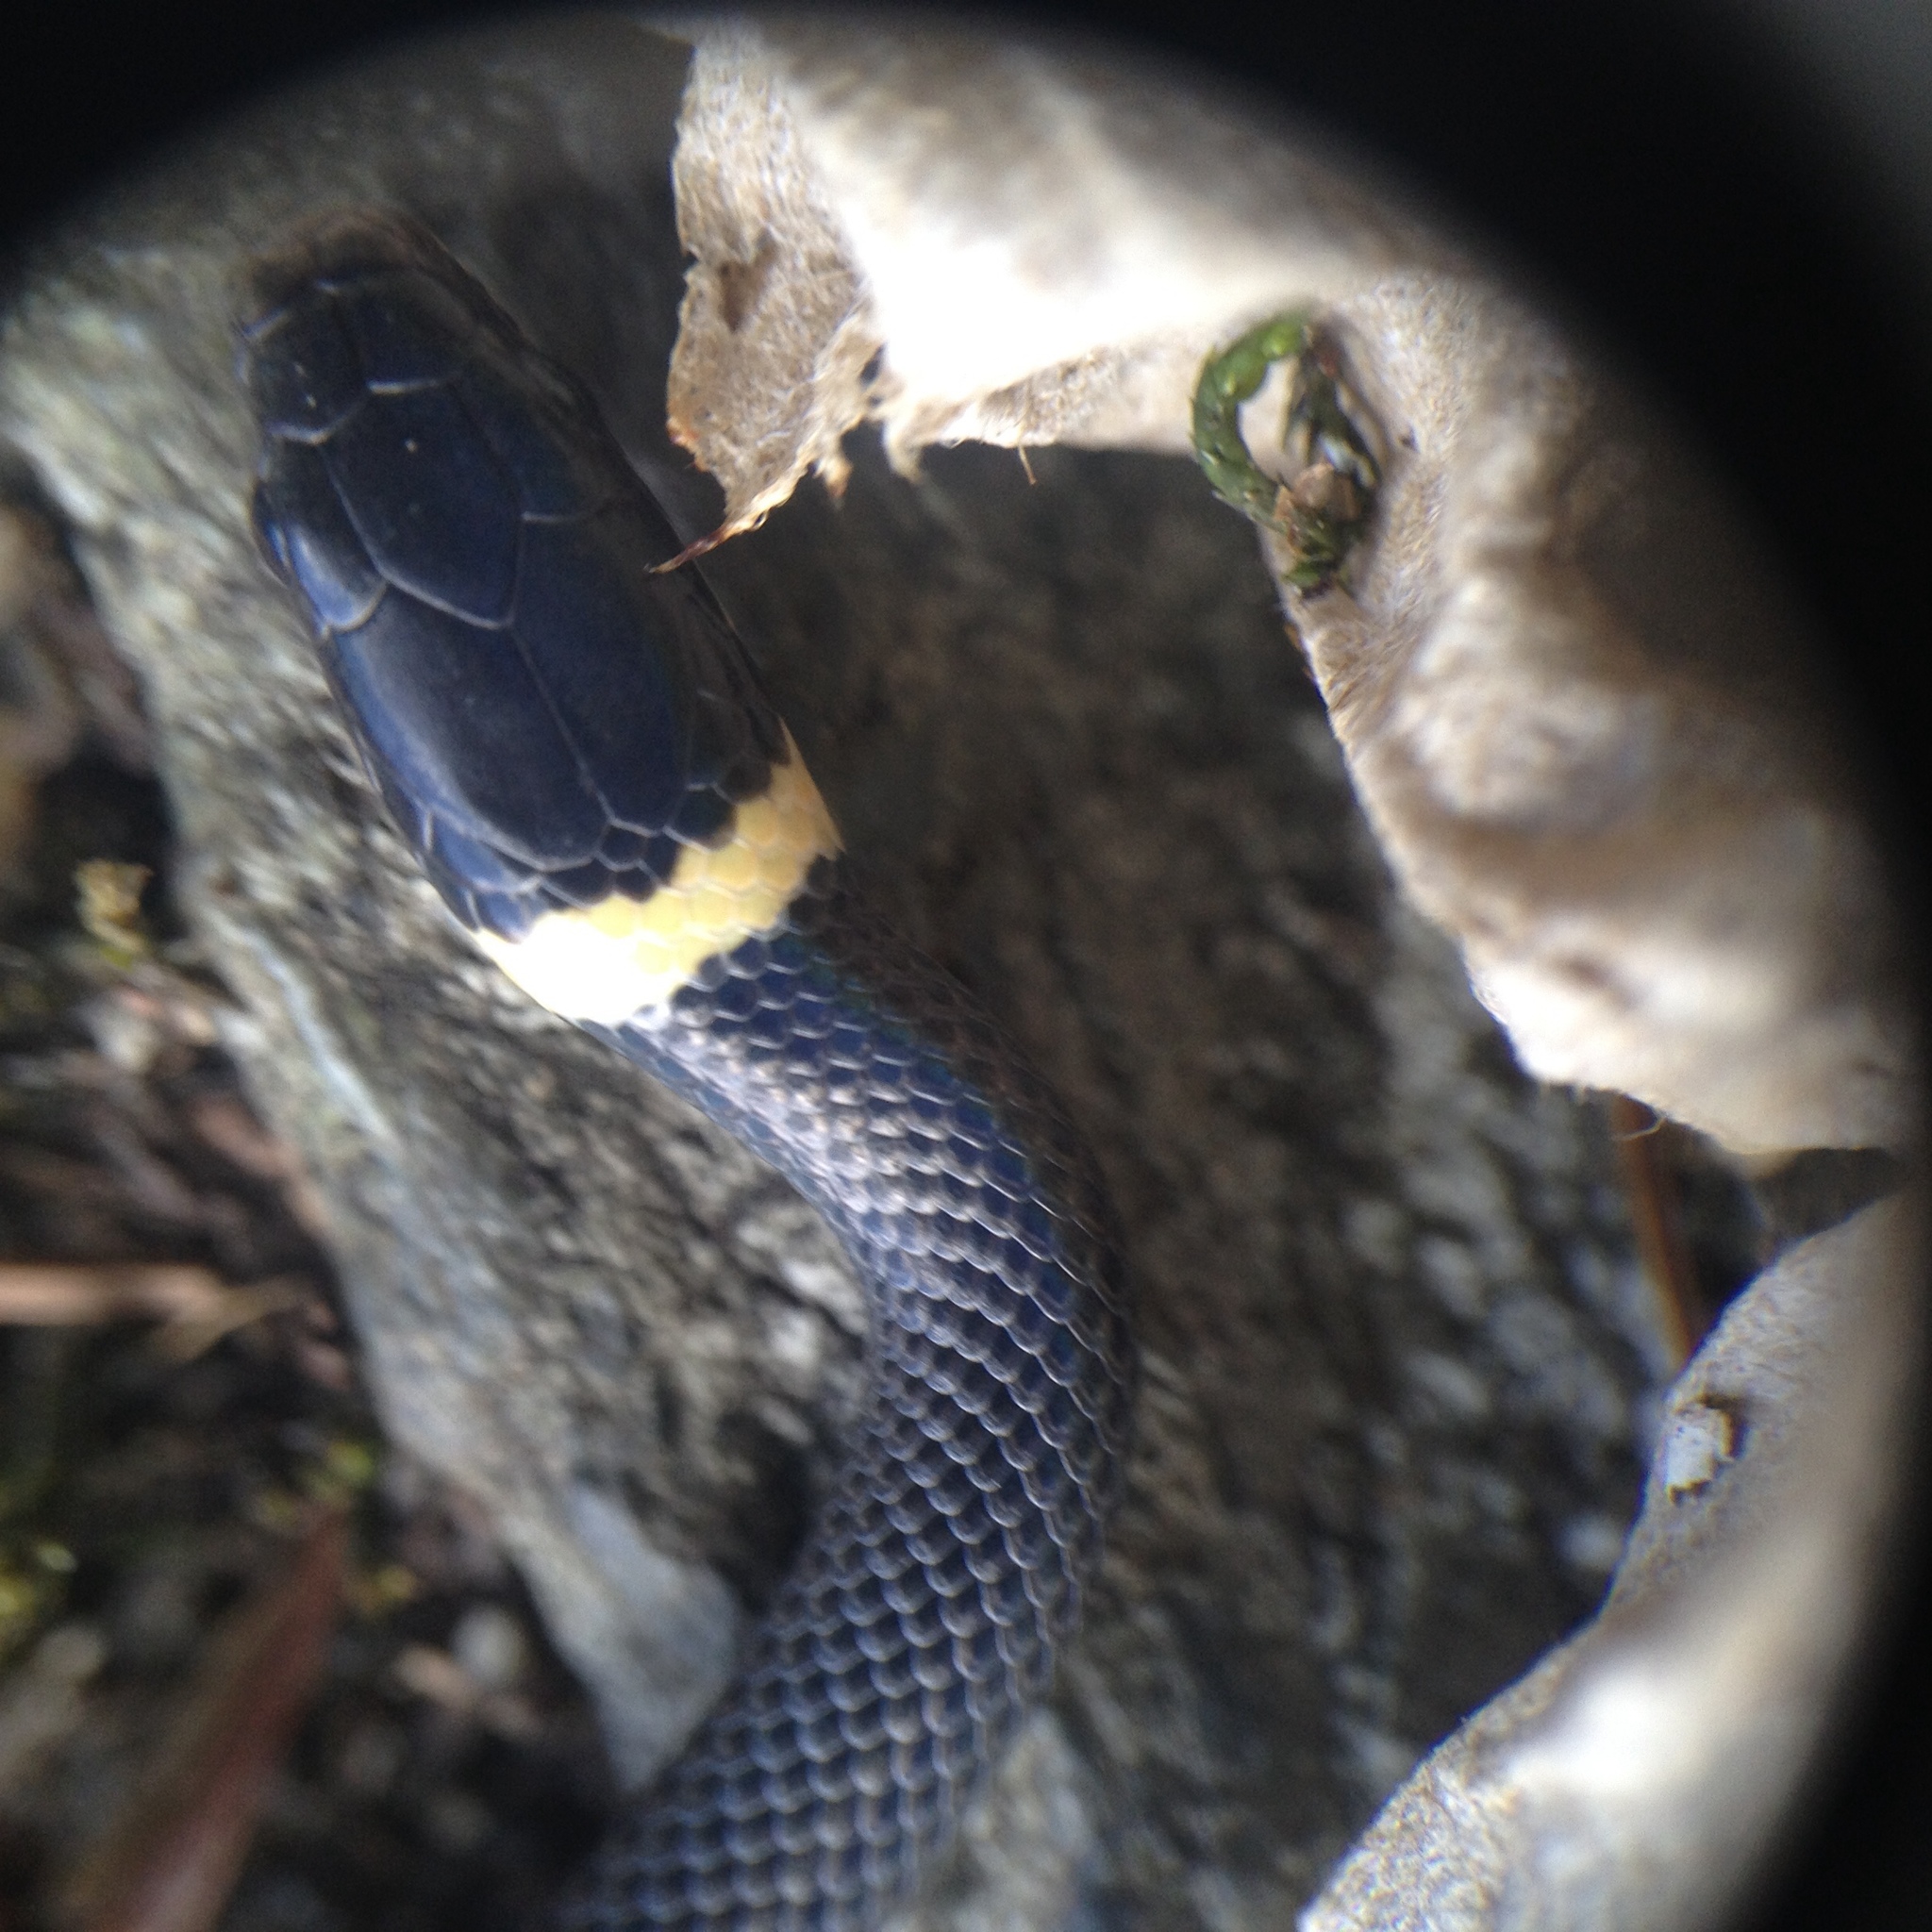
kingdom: Animalia
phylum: Chordata
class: Squamata
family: Colubridae
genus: Diadophis
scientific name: Diadophis punctatus
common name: Ringneck snake
